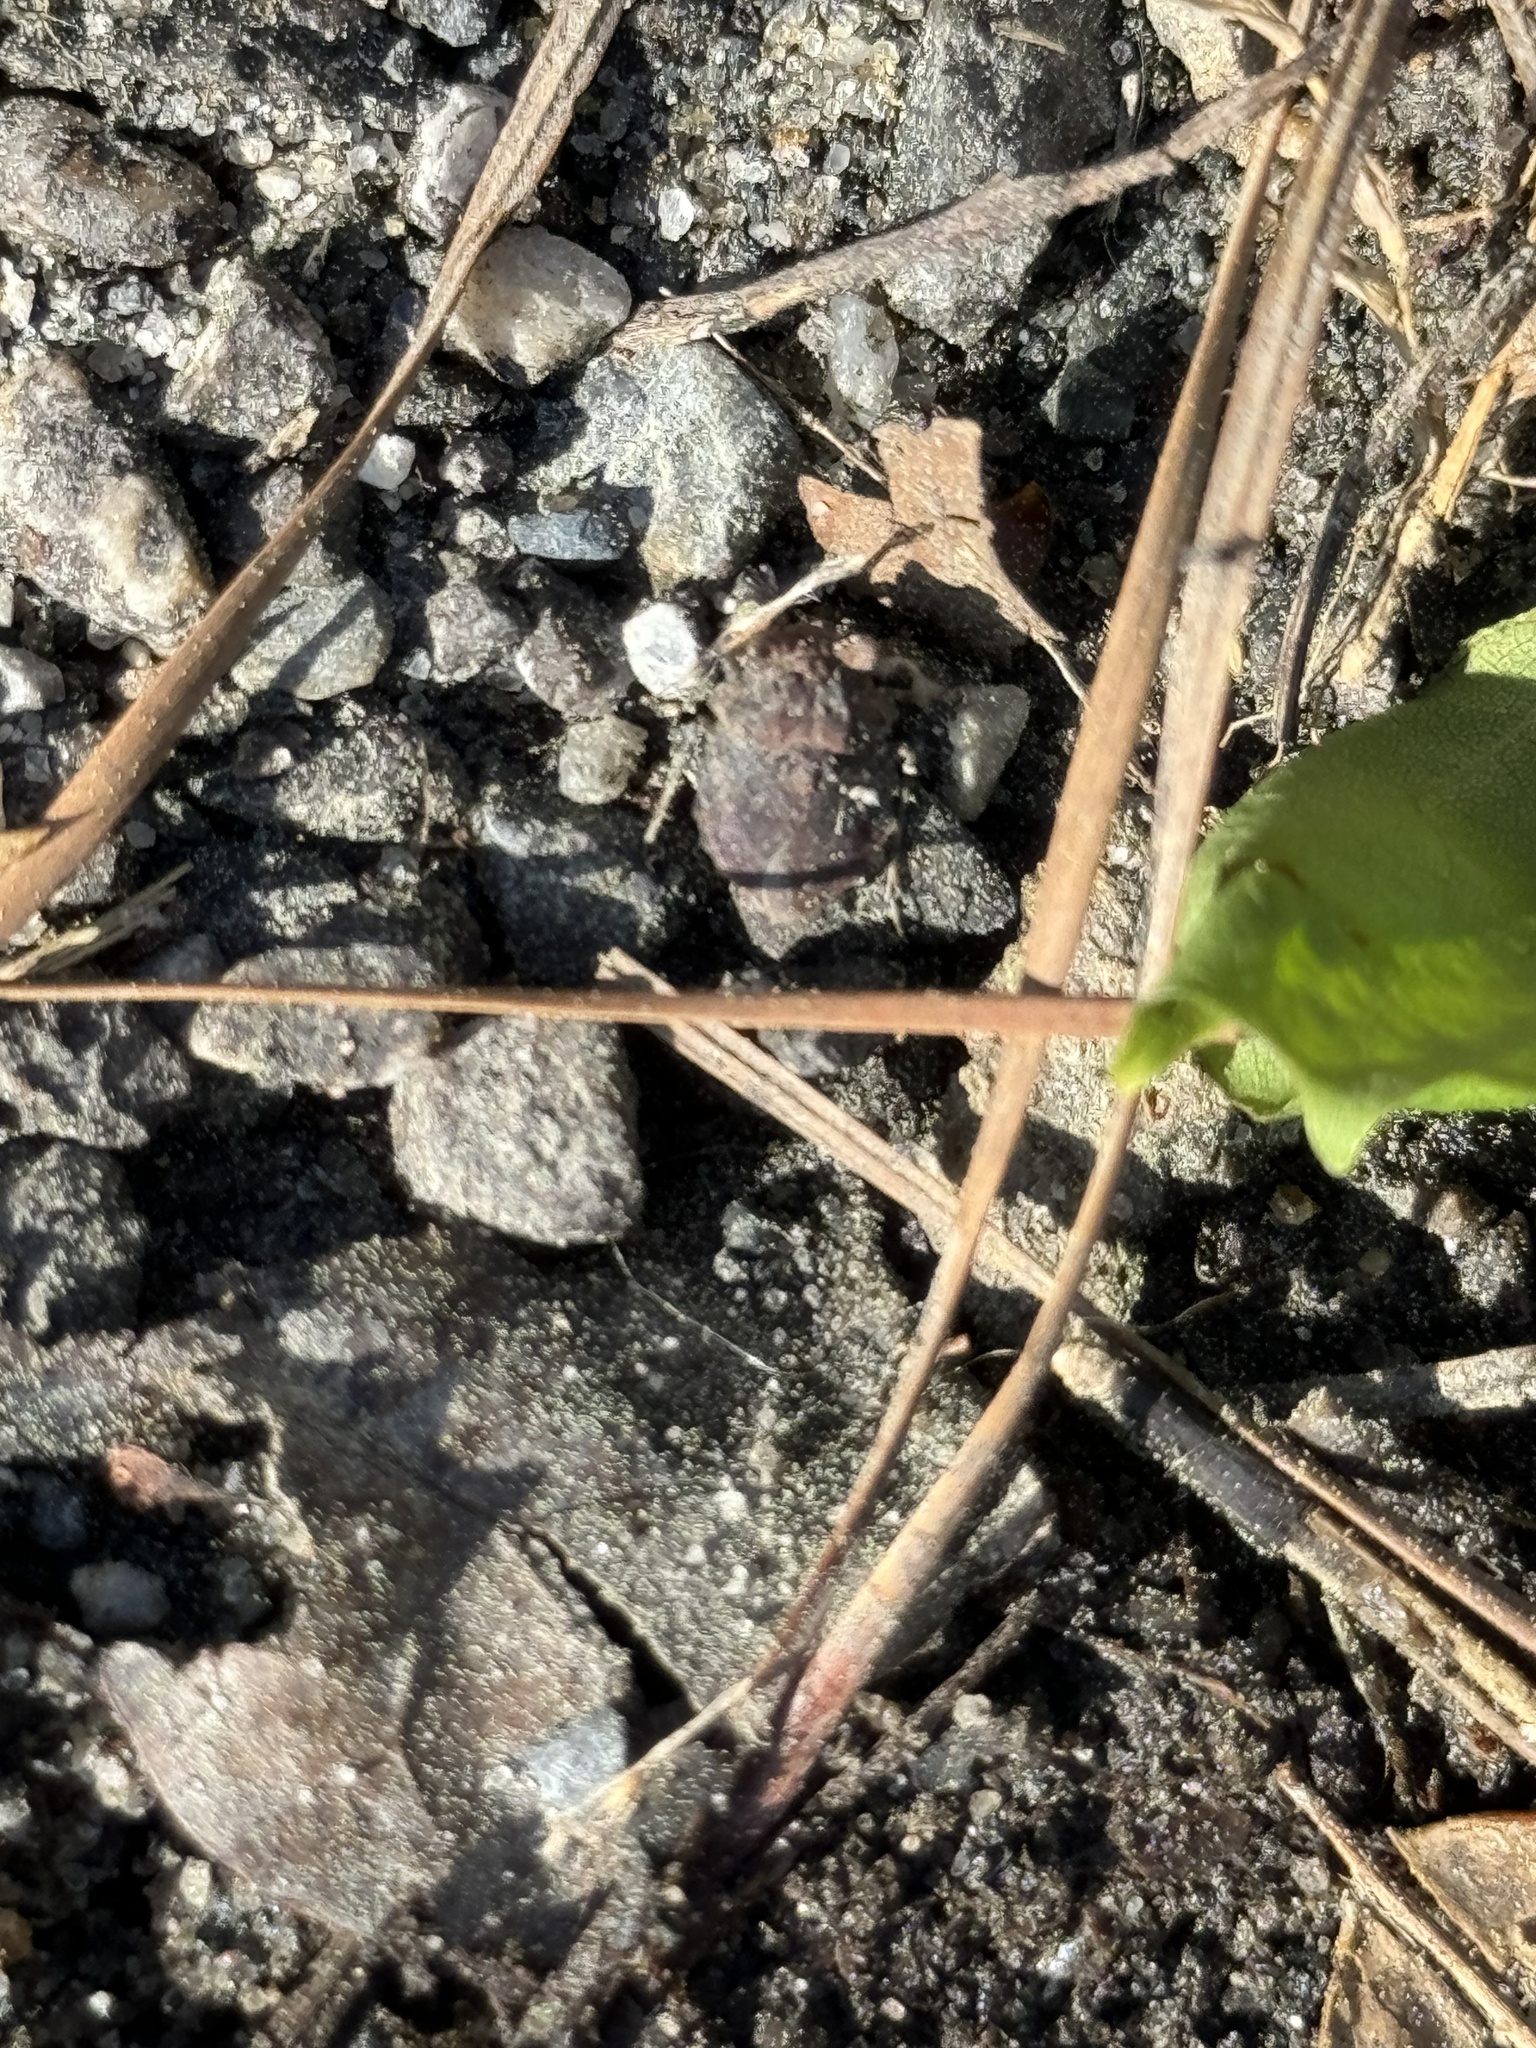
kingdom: Animalia
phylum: Arthropoda
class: Insecta
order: Hemiptera
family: Gelastocoridae
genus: Gelastocoris
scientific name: Gelastocoris oculatus
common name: Toad bug
